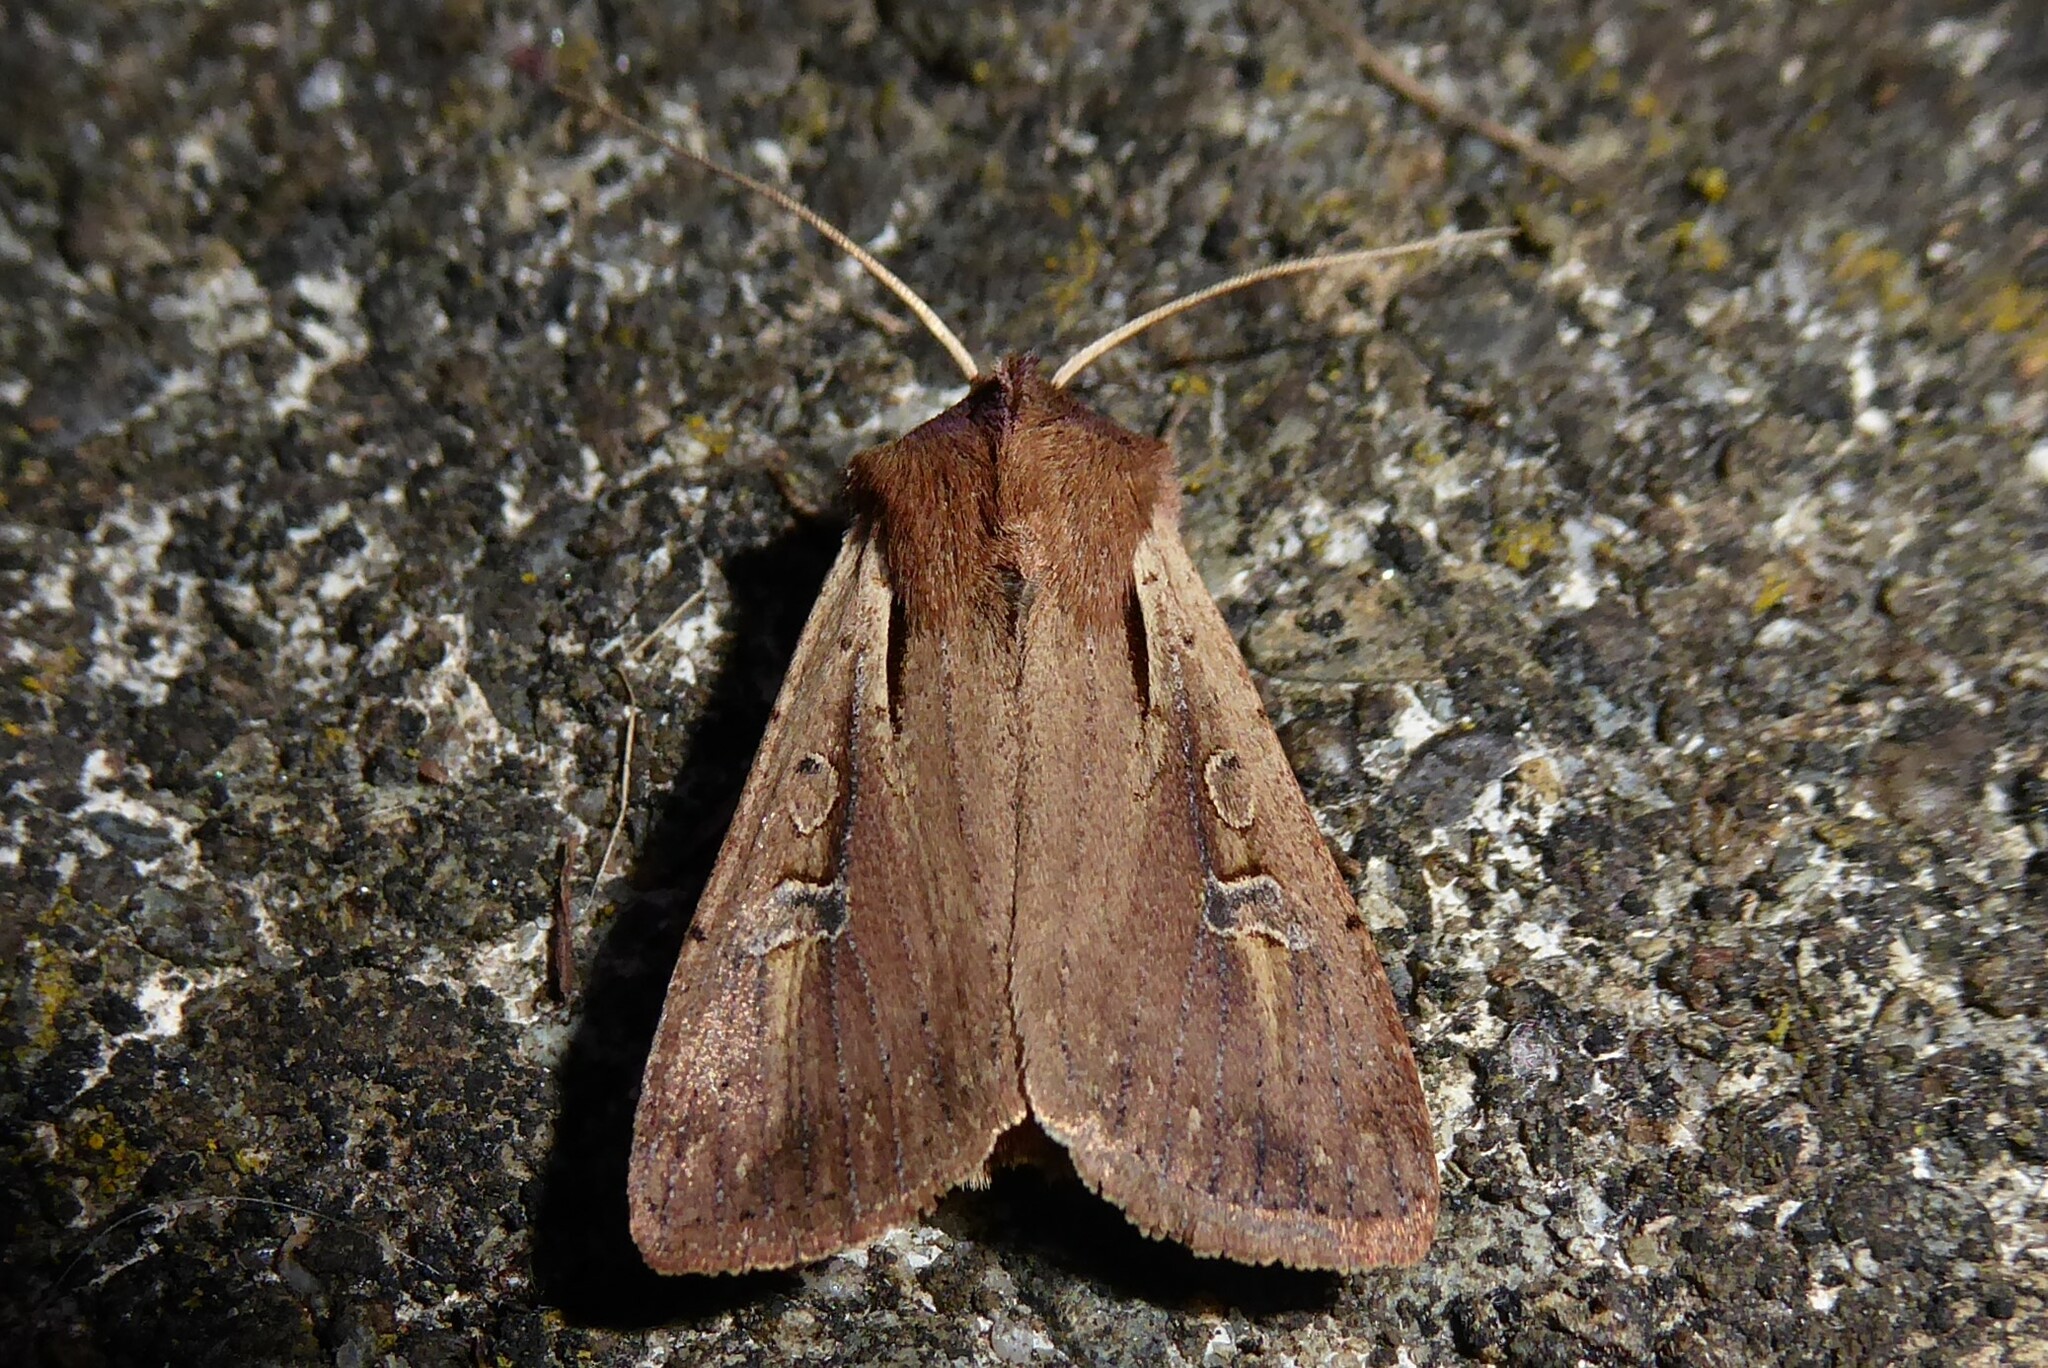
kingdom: Animalia
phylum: Arthropoda
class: Insecta
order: Lepidoptera
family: Noctuidae
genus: Ichneutica
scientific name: Ichneutica atristriga
